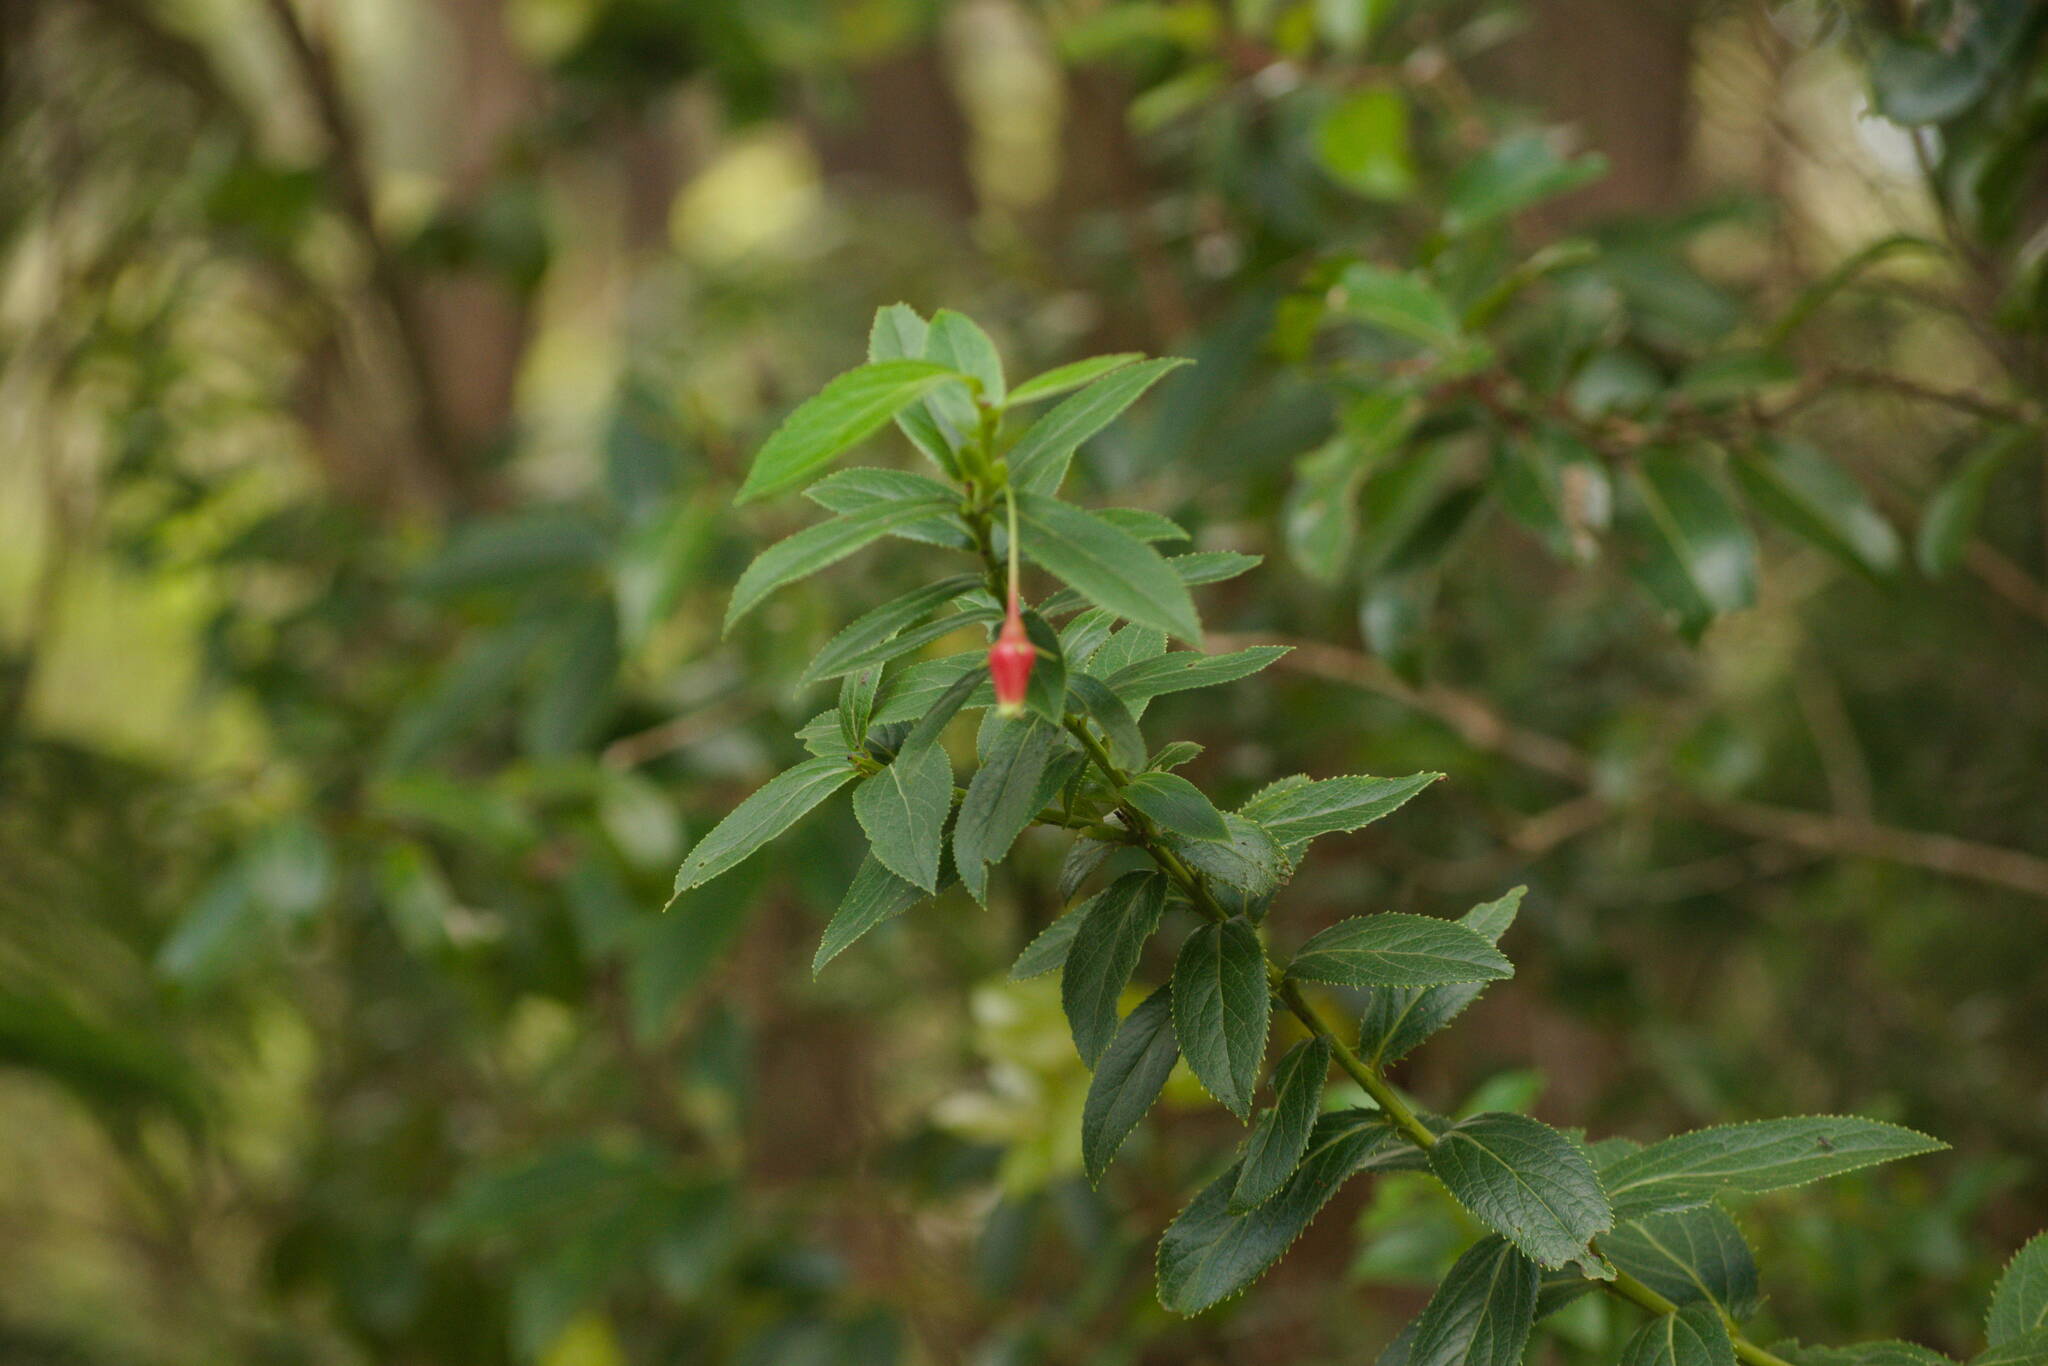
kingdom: Plantae
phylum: Tracheophyta
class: Magnoliopsida
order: Ericales
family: Ericaceae
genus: Vaccinium
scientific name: Vaccinium dentatum
